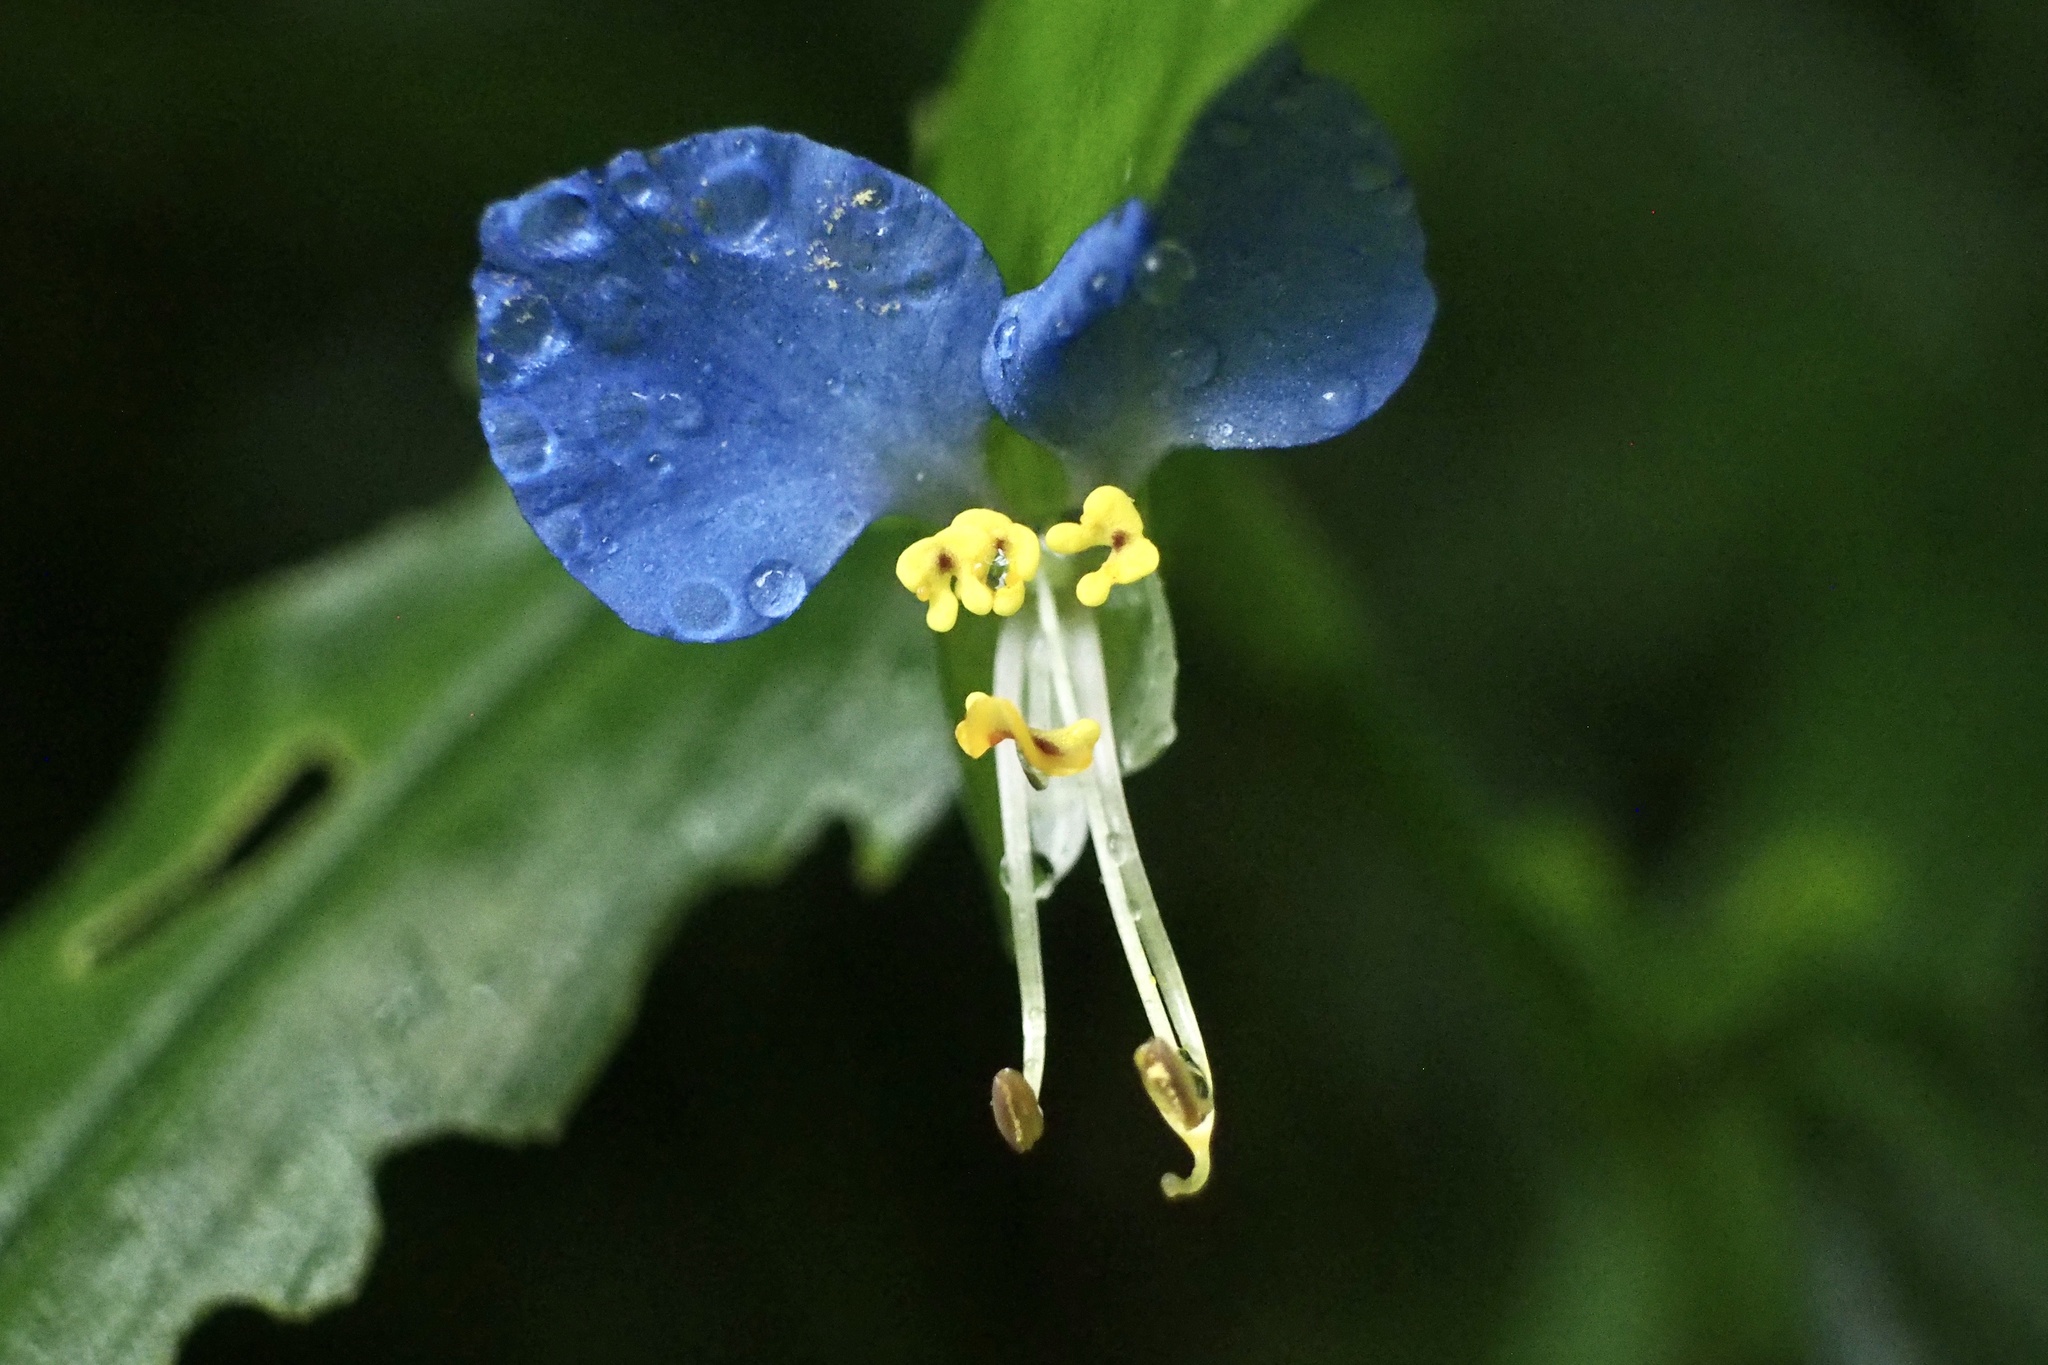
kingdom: Plantae
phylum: Tracheophyta
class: Liliopsida
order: Commelinales
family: Commelinaceae
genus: Commelina
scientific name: Commelina communis
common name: Asiatic dayflower
